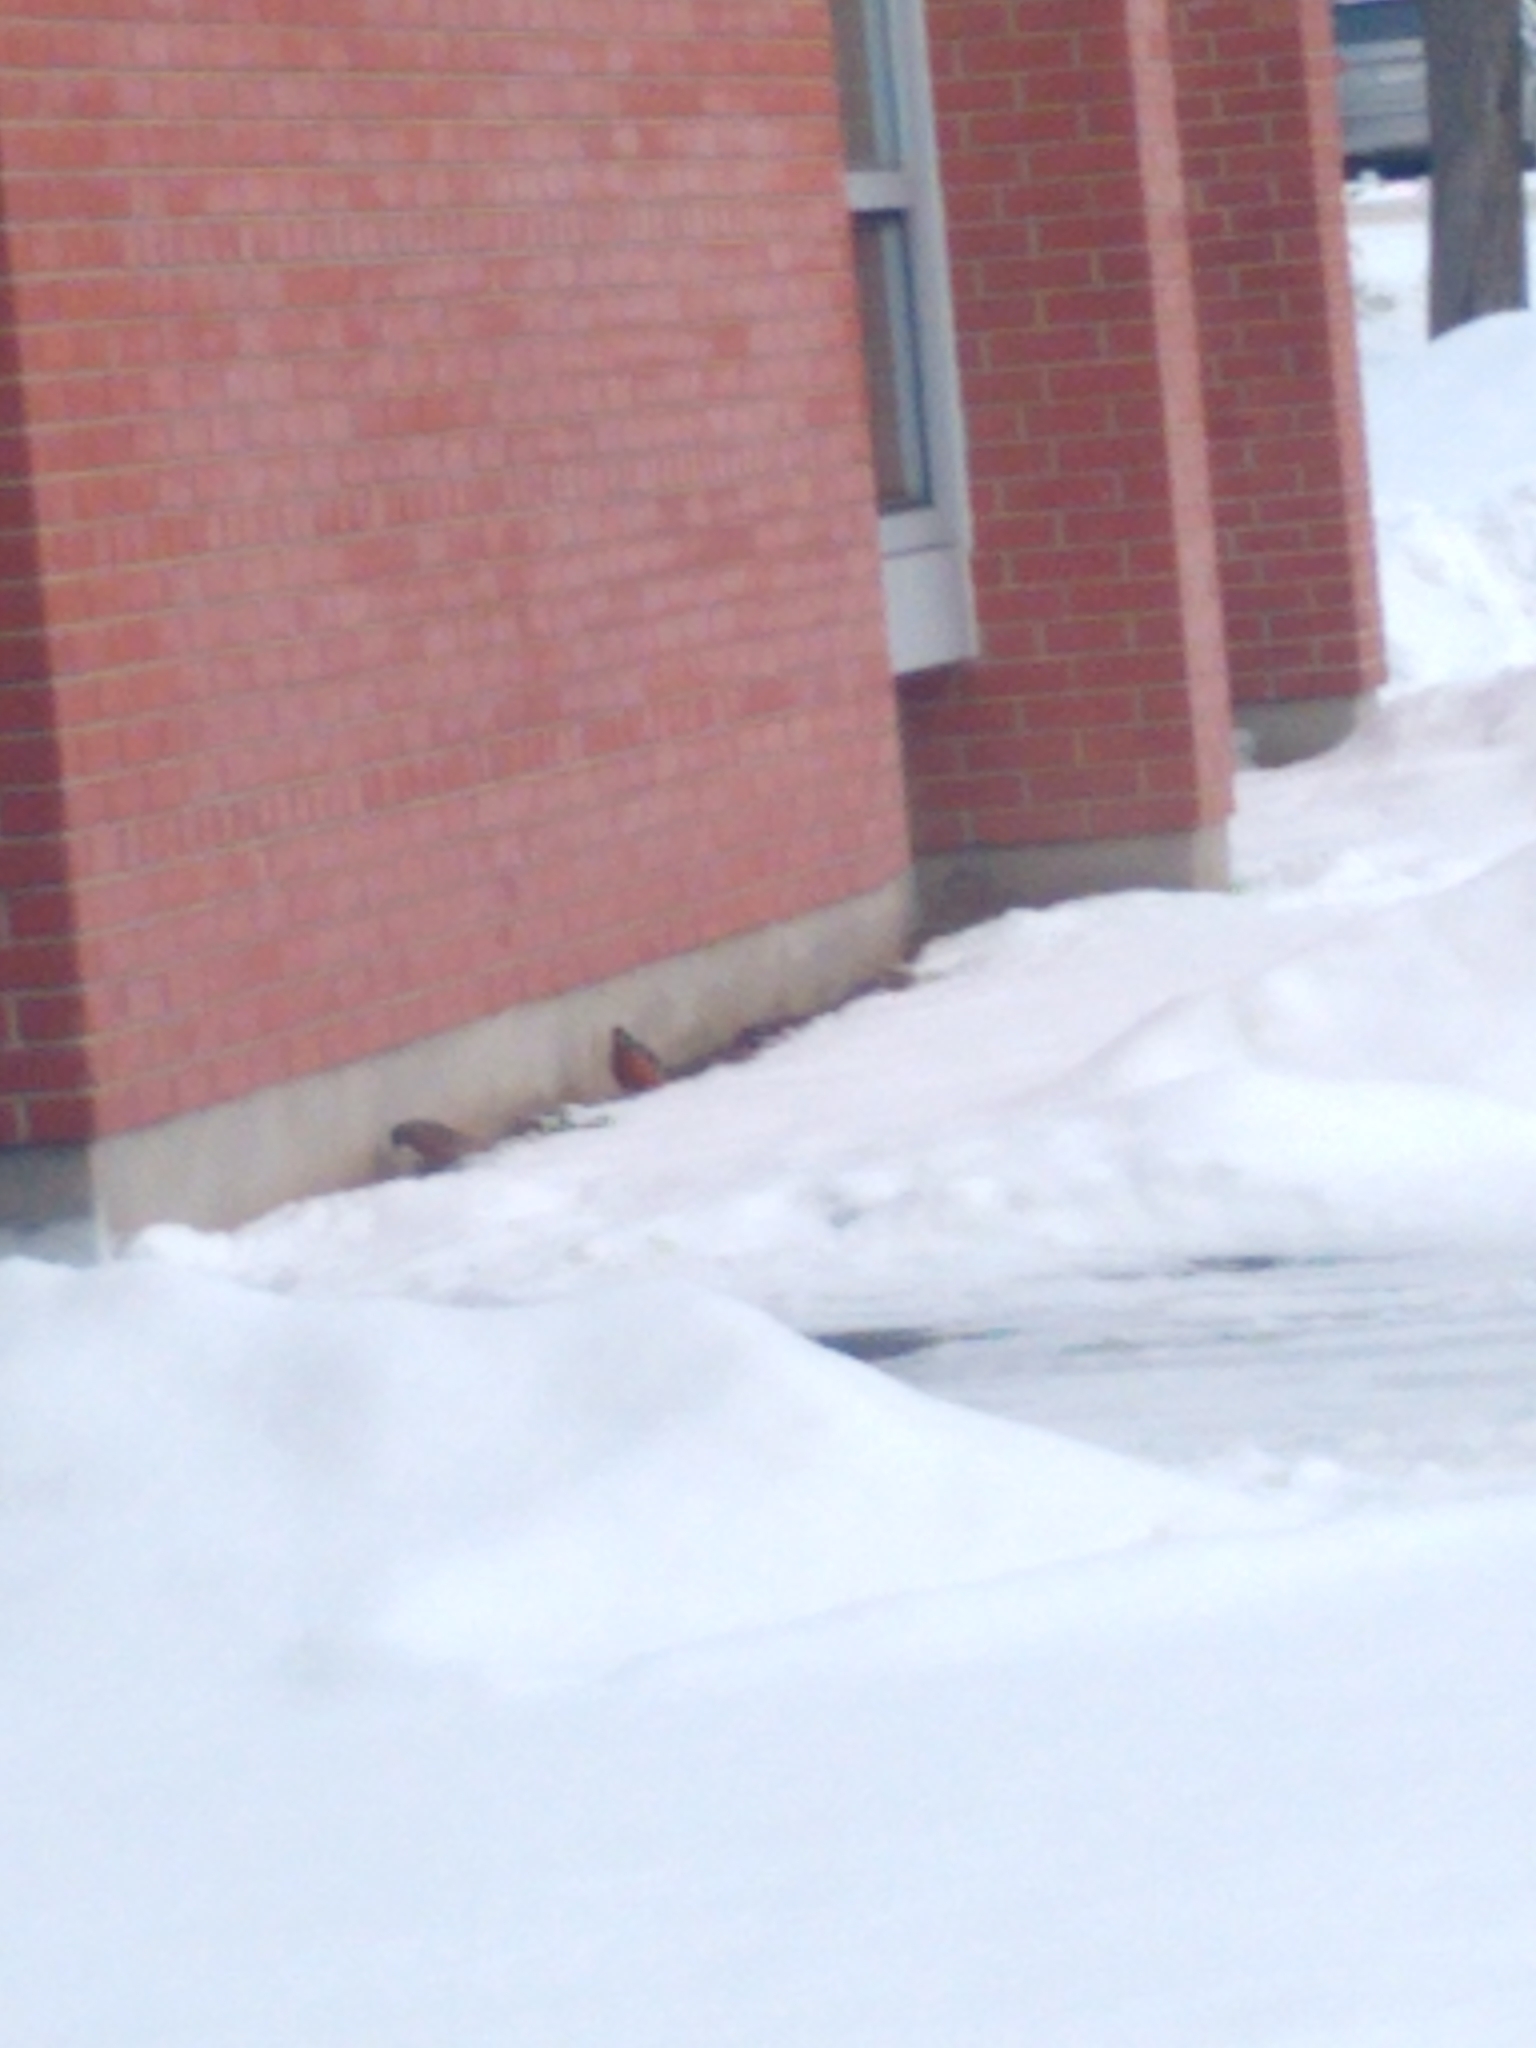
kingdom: Animalia
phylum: Chordata
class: Aves
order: Passeriformes
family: Turdidae
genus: Turdus
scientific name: Turdus migratorius
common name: American robin
